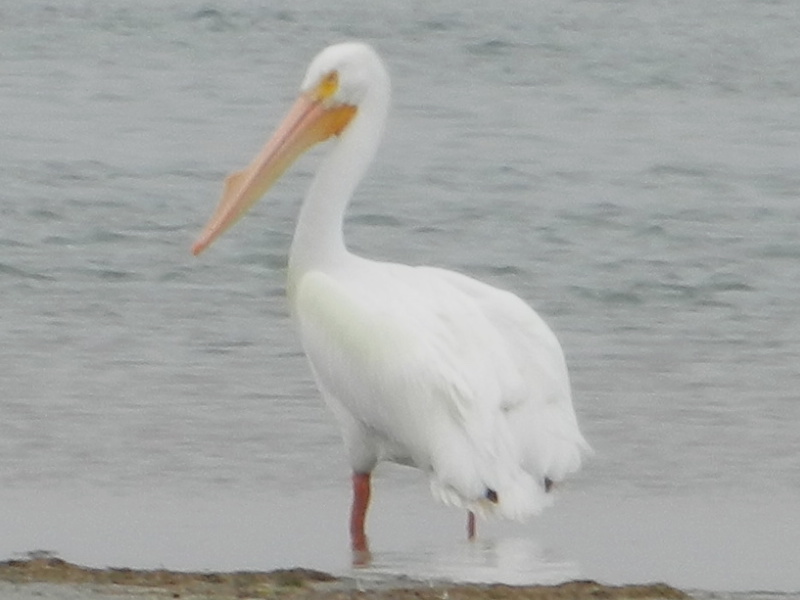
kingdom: Animalia
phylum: Chordata
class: Aves
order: Pelecaniformes
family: Pelecanidae
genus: Pelecanus
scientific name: Pelecanus erythrorhynchos
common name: American white pelican
